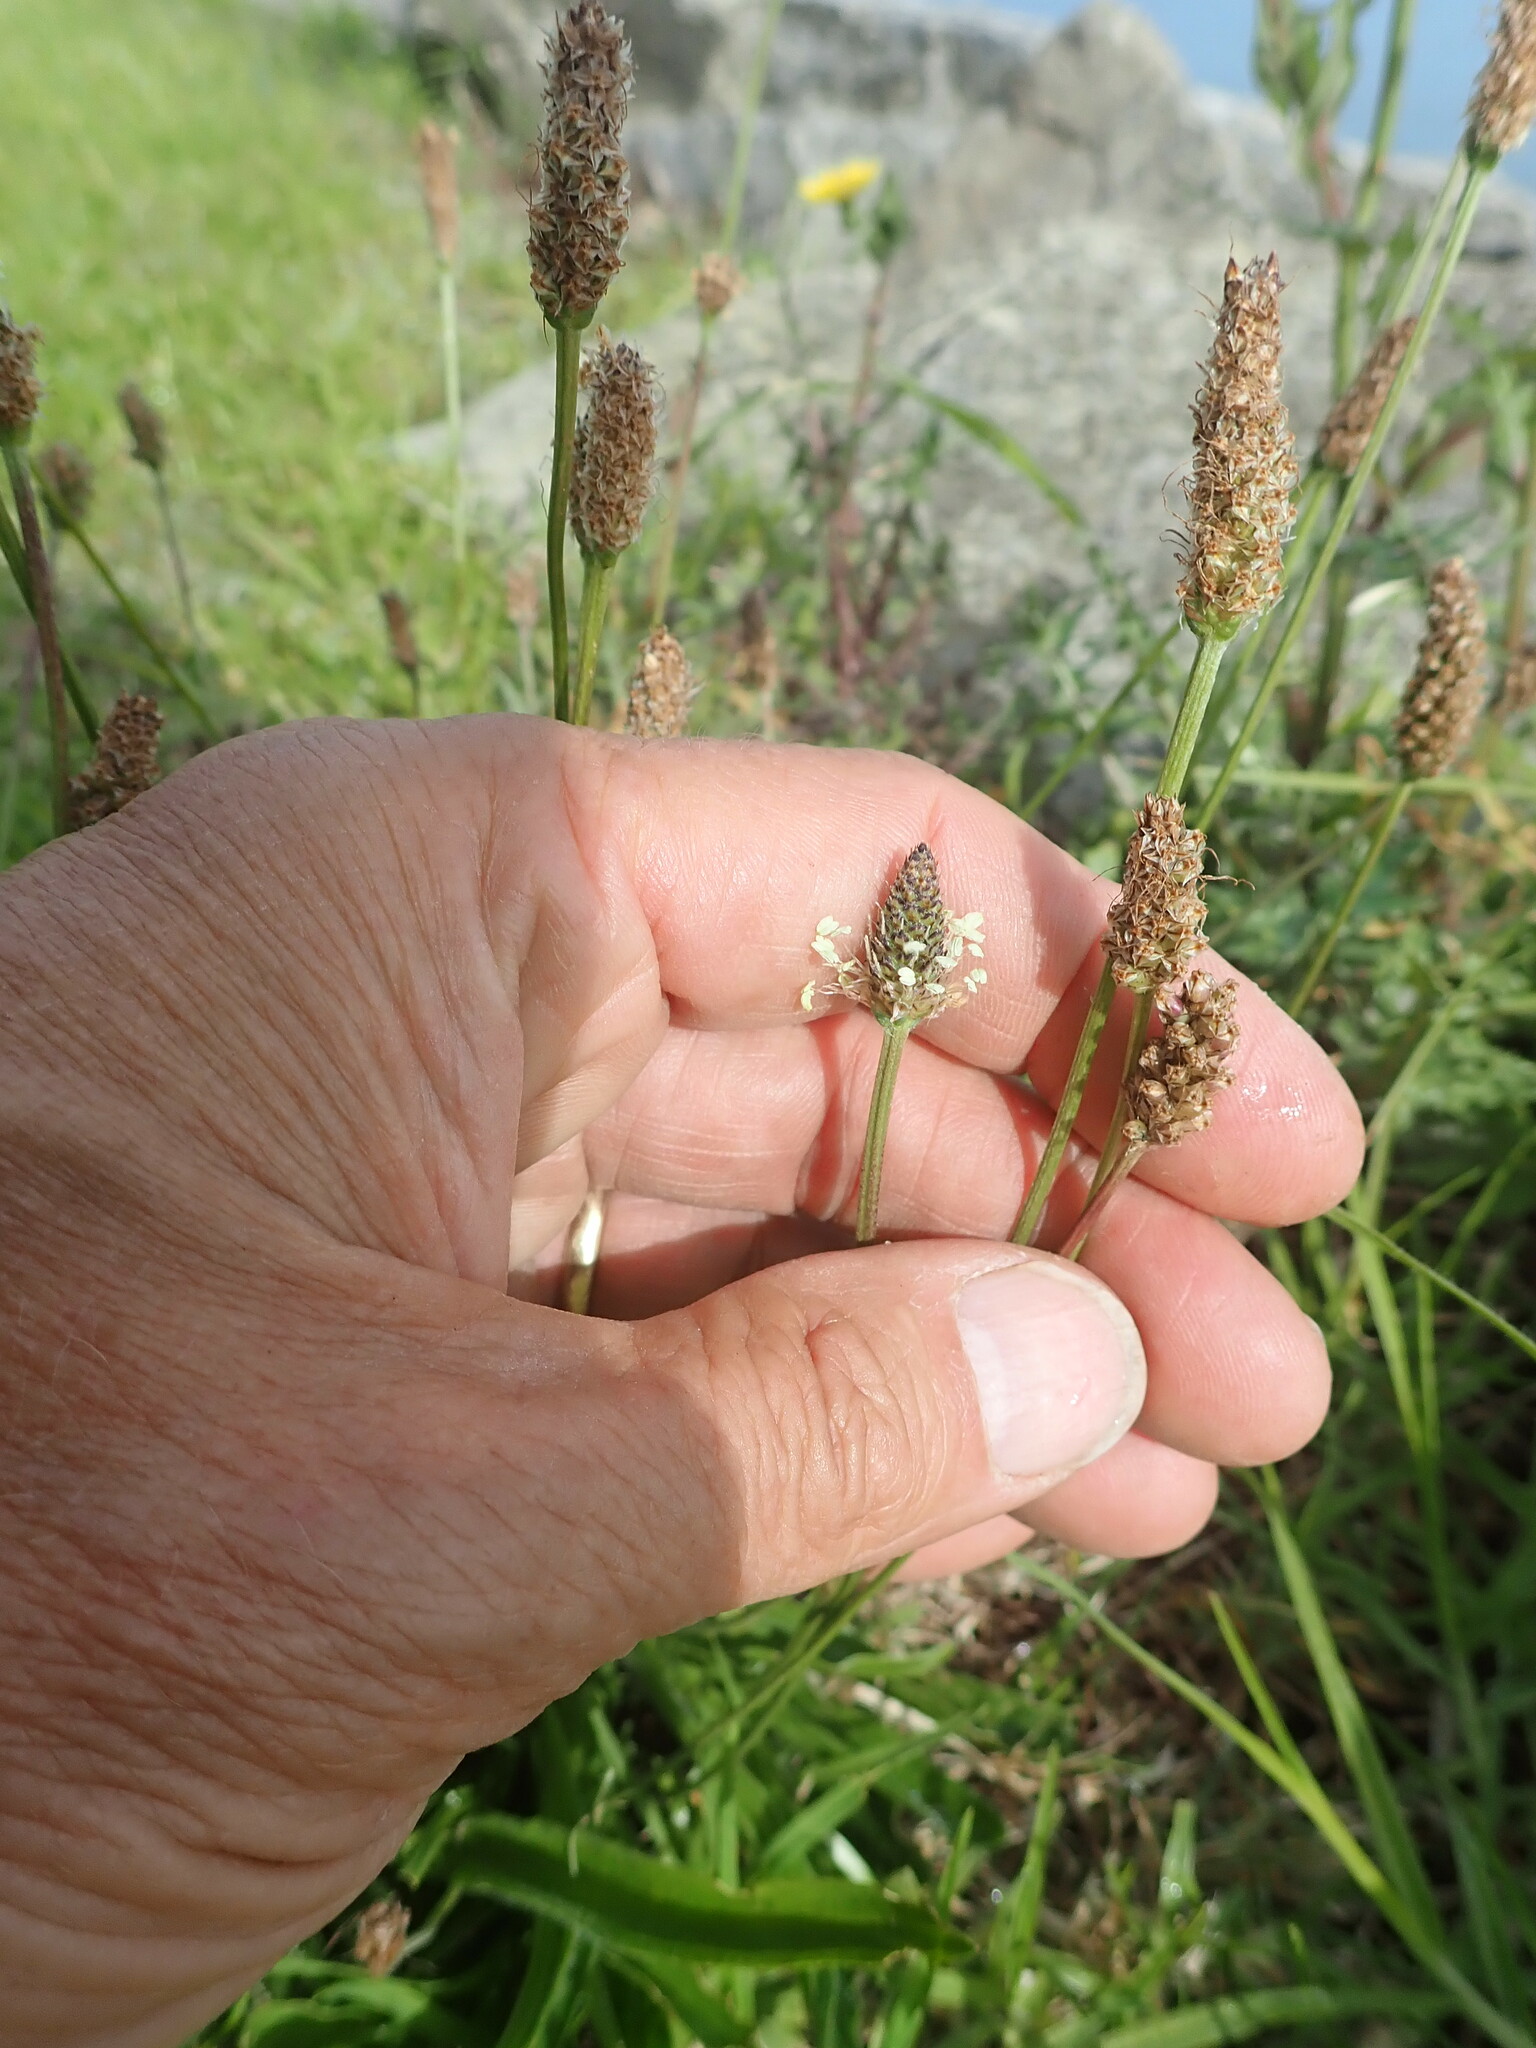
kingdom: Plantae
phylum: Tracheophyta
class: Magnoliopsida
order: Lamiales
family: Plantaginaceae
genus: Plantago
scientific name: Plantago lanceolata
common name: Ribwort plantain
